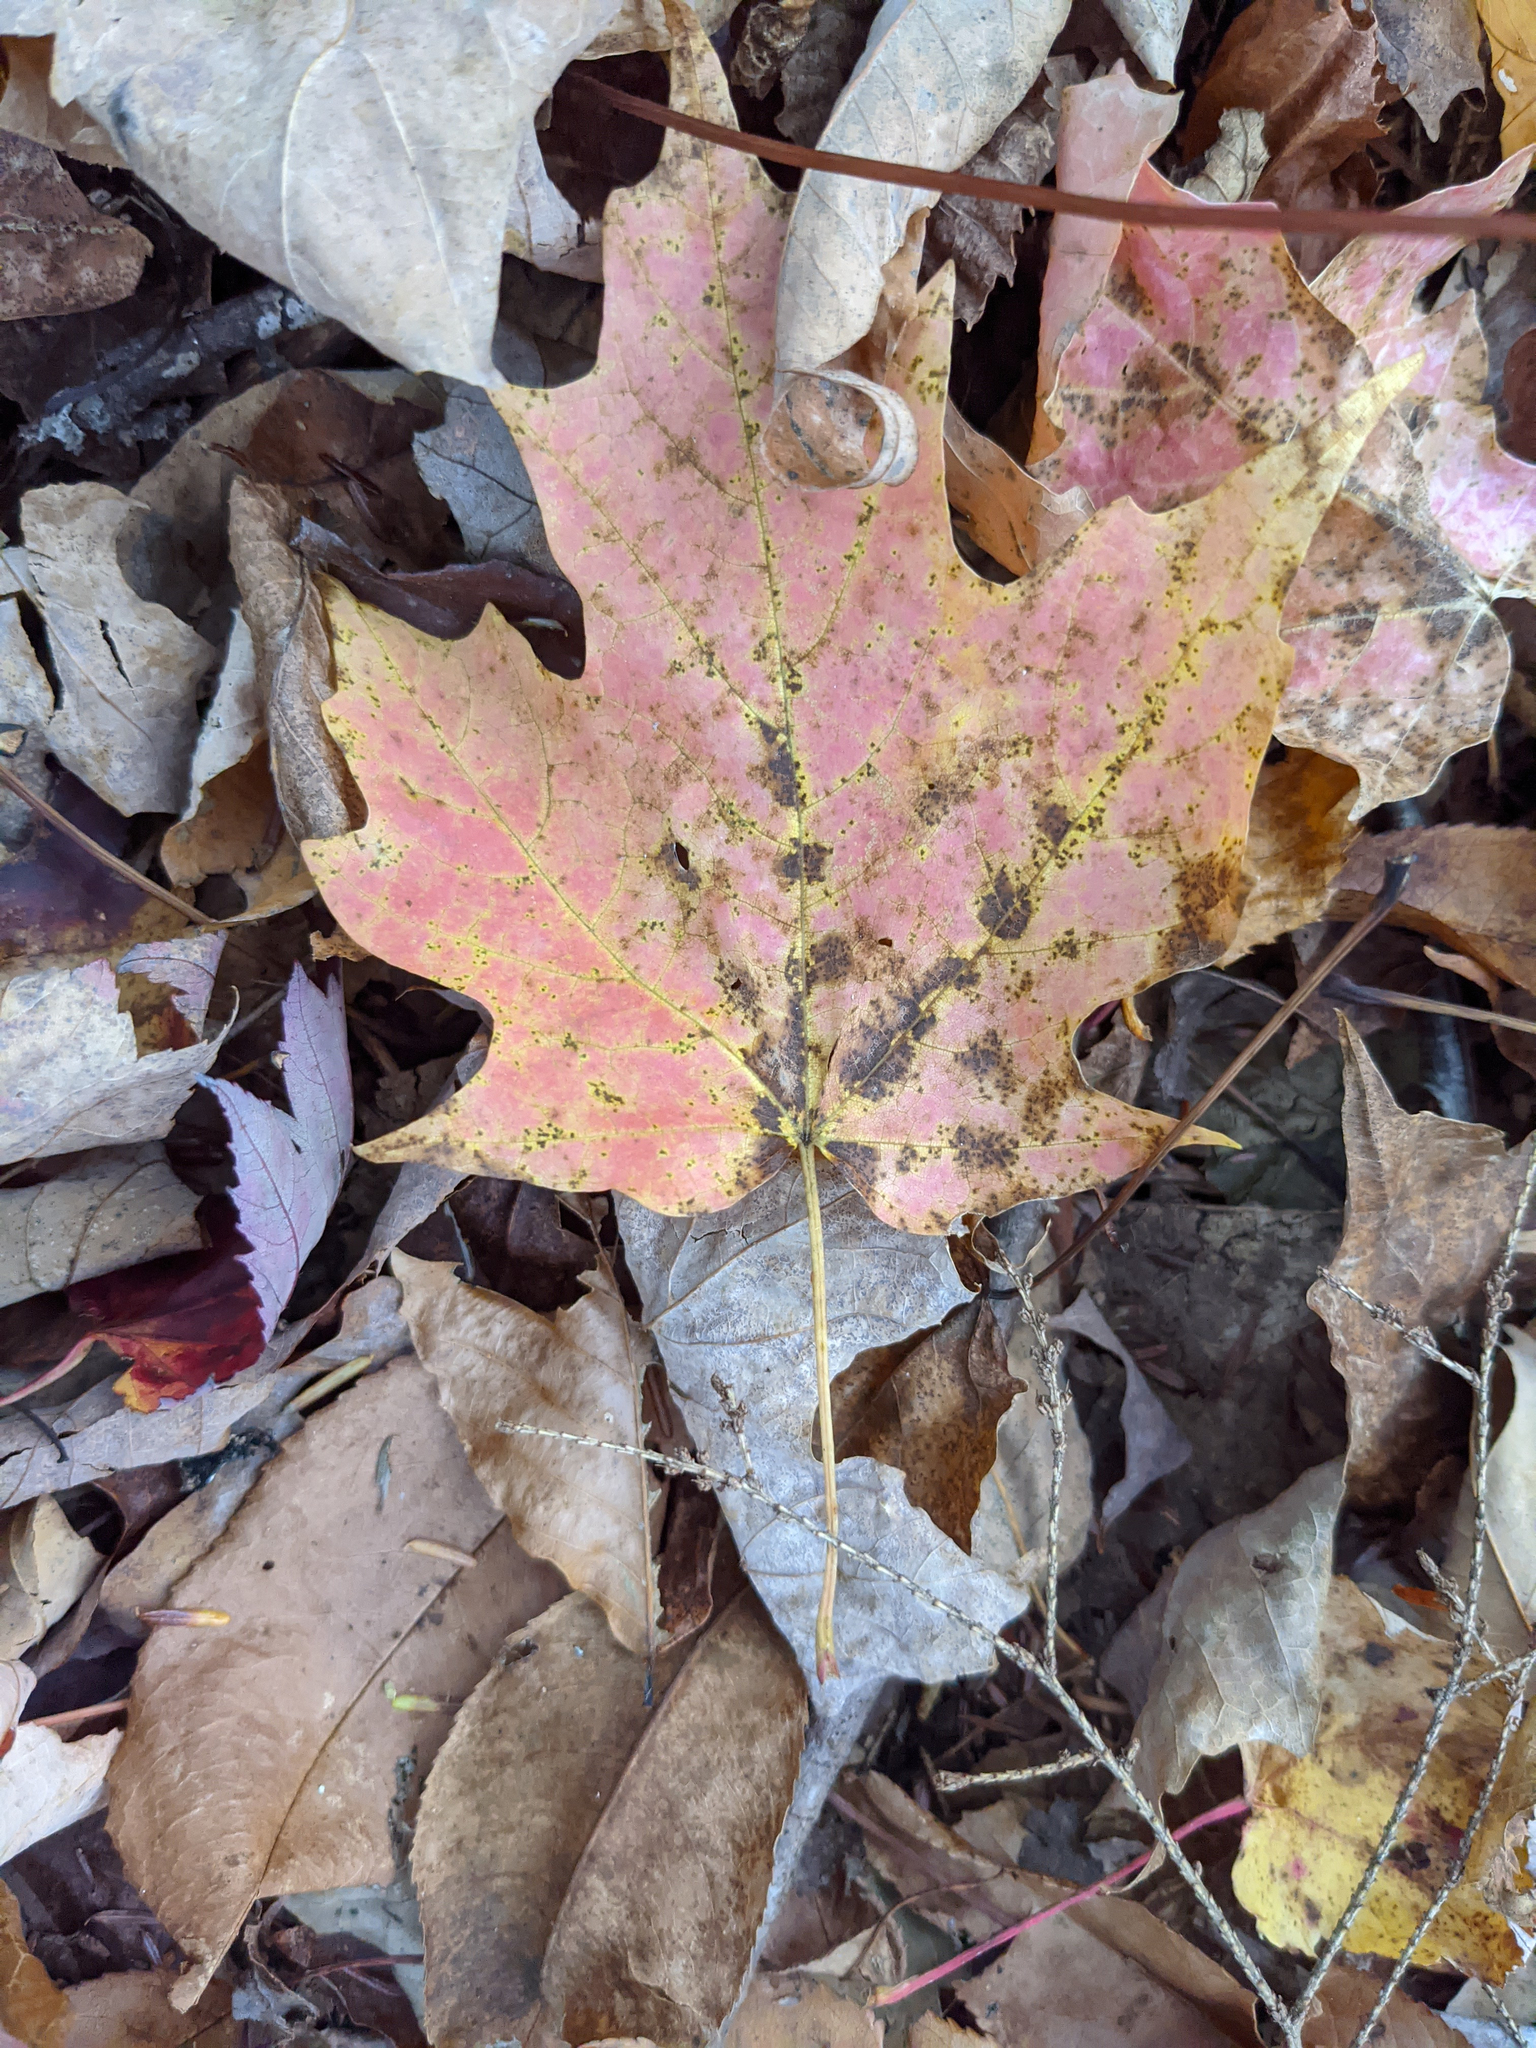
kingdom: Plantae
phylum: Tracheophyta
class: Magnoliopsida
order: Sapindales
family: Sapindaceae
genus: Acer
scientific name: Acer saccharum
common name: Sugar maple
